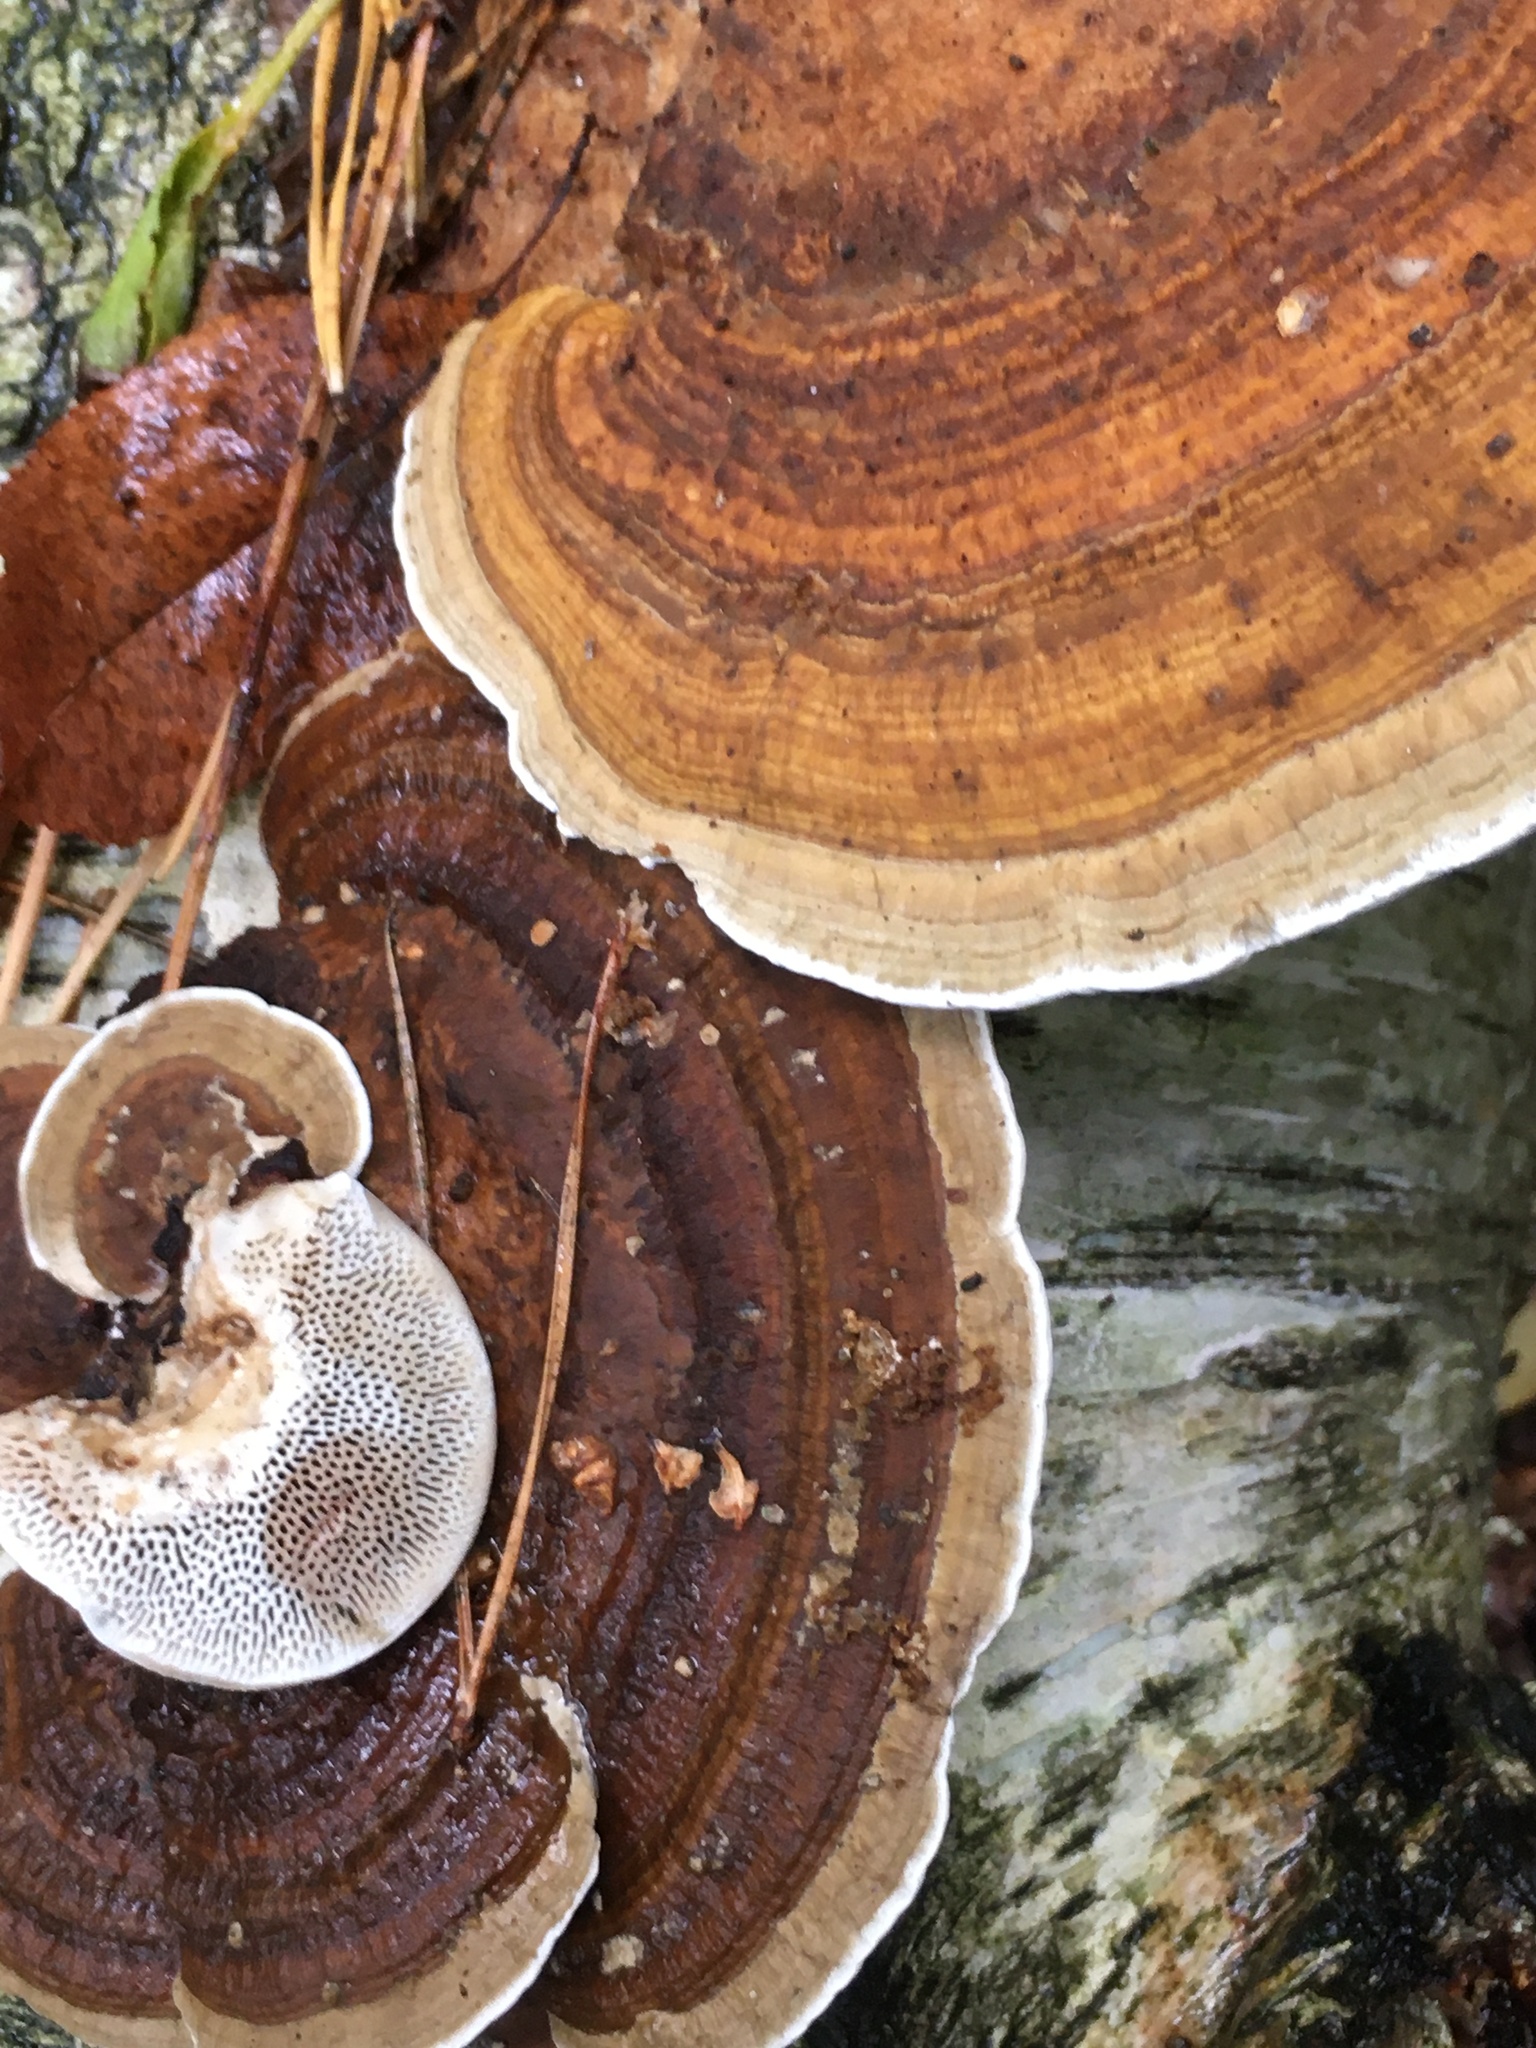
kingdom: Fungi
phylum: Basidiomycota
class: Agaricomycetes
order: Polyporales
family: Polyporaceae
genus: Daedaleopsis
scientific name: Daedaleopsis confragosa
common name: Blushing bracket
